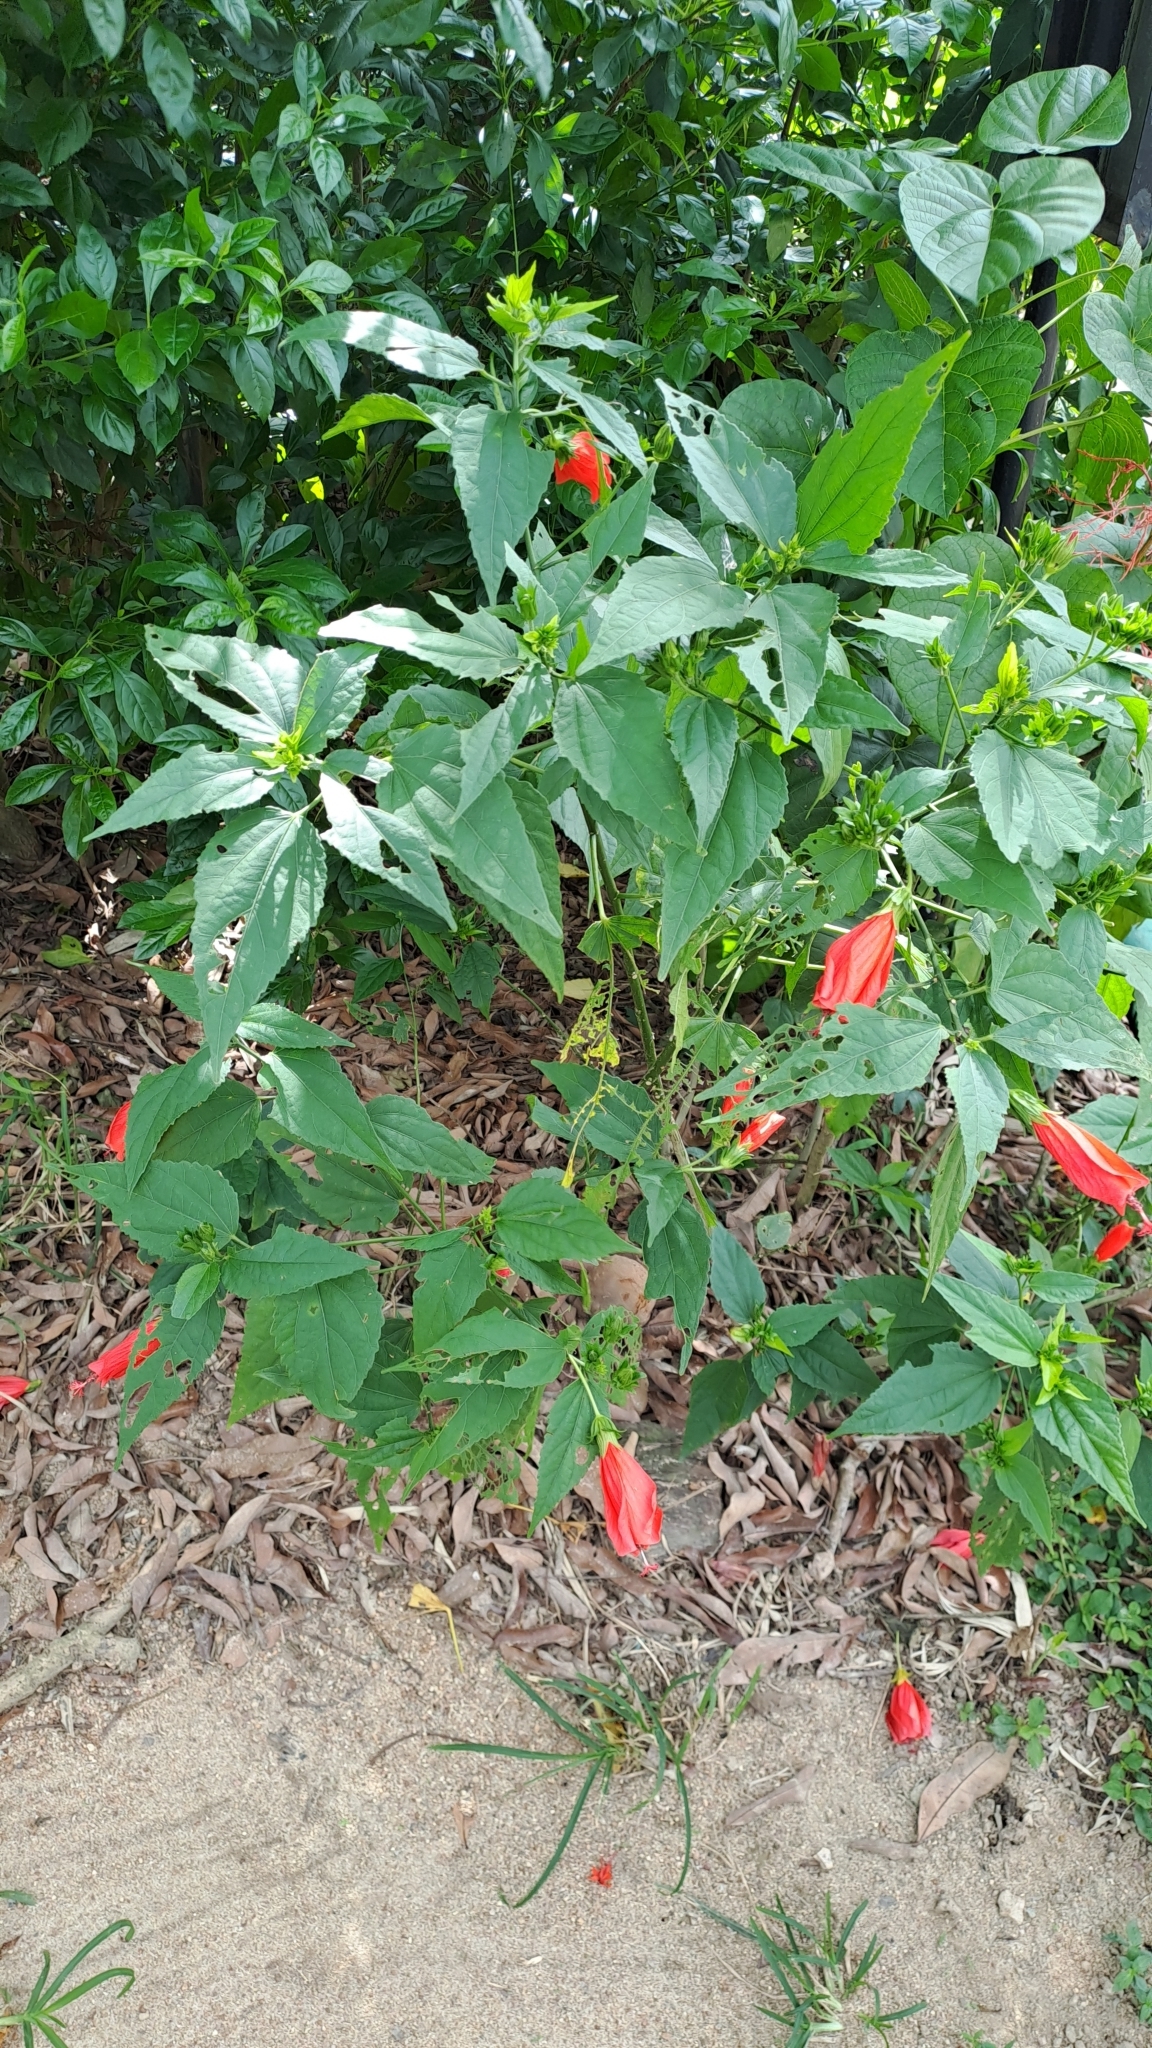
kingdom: Plantae
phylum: Tracheophyta
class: Magnoliopsida
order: Malvales
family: Malvaceae
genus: Malvaviscus
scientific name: Malvaviscus penduliflorus
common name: Mazapan
